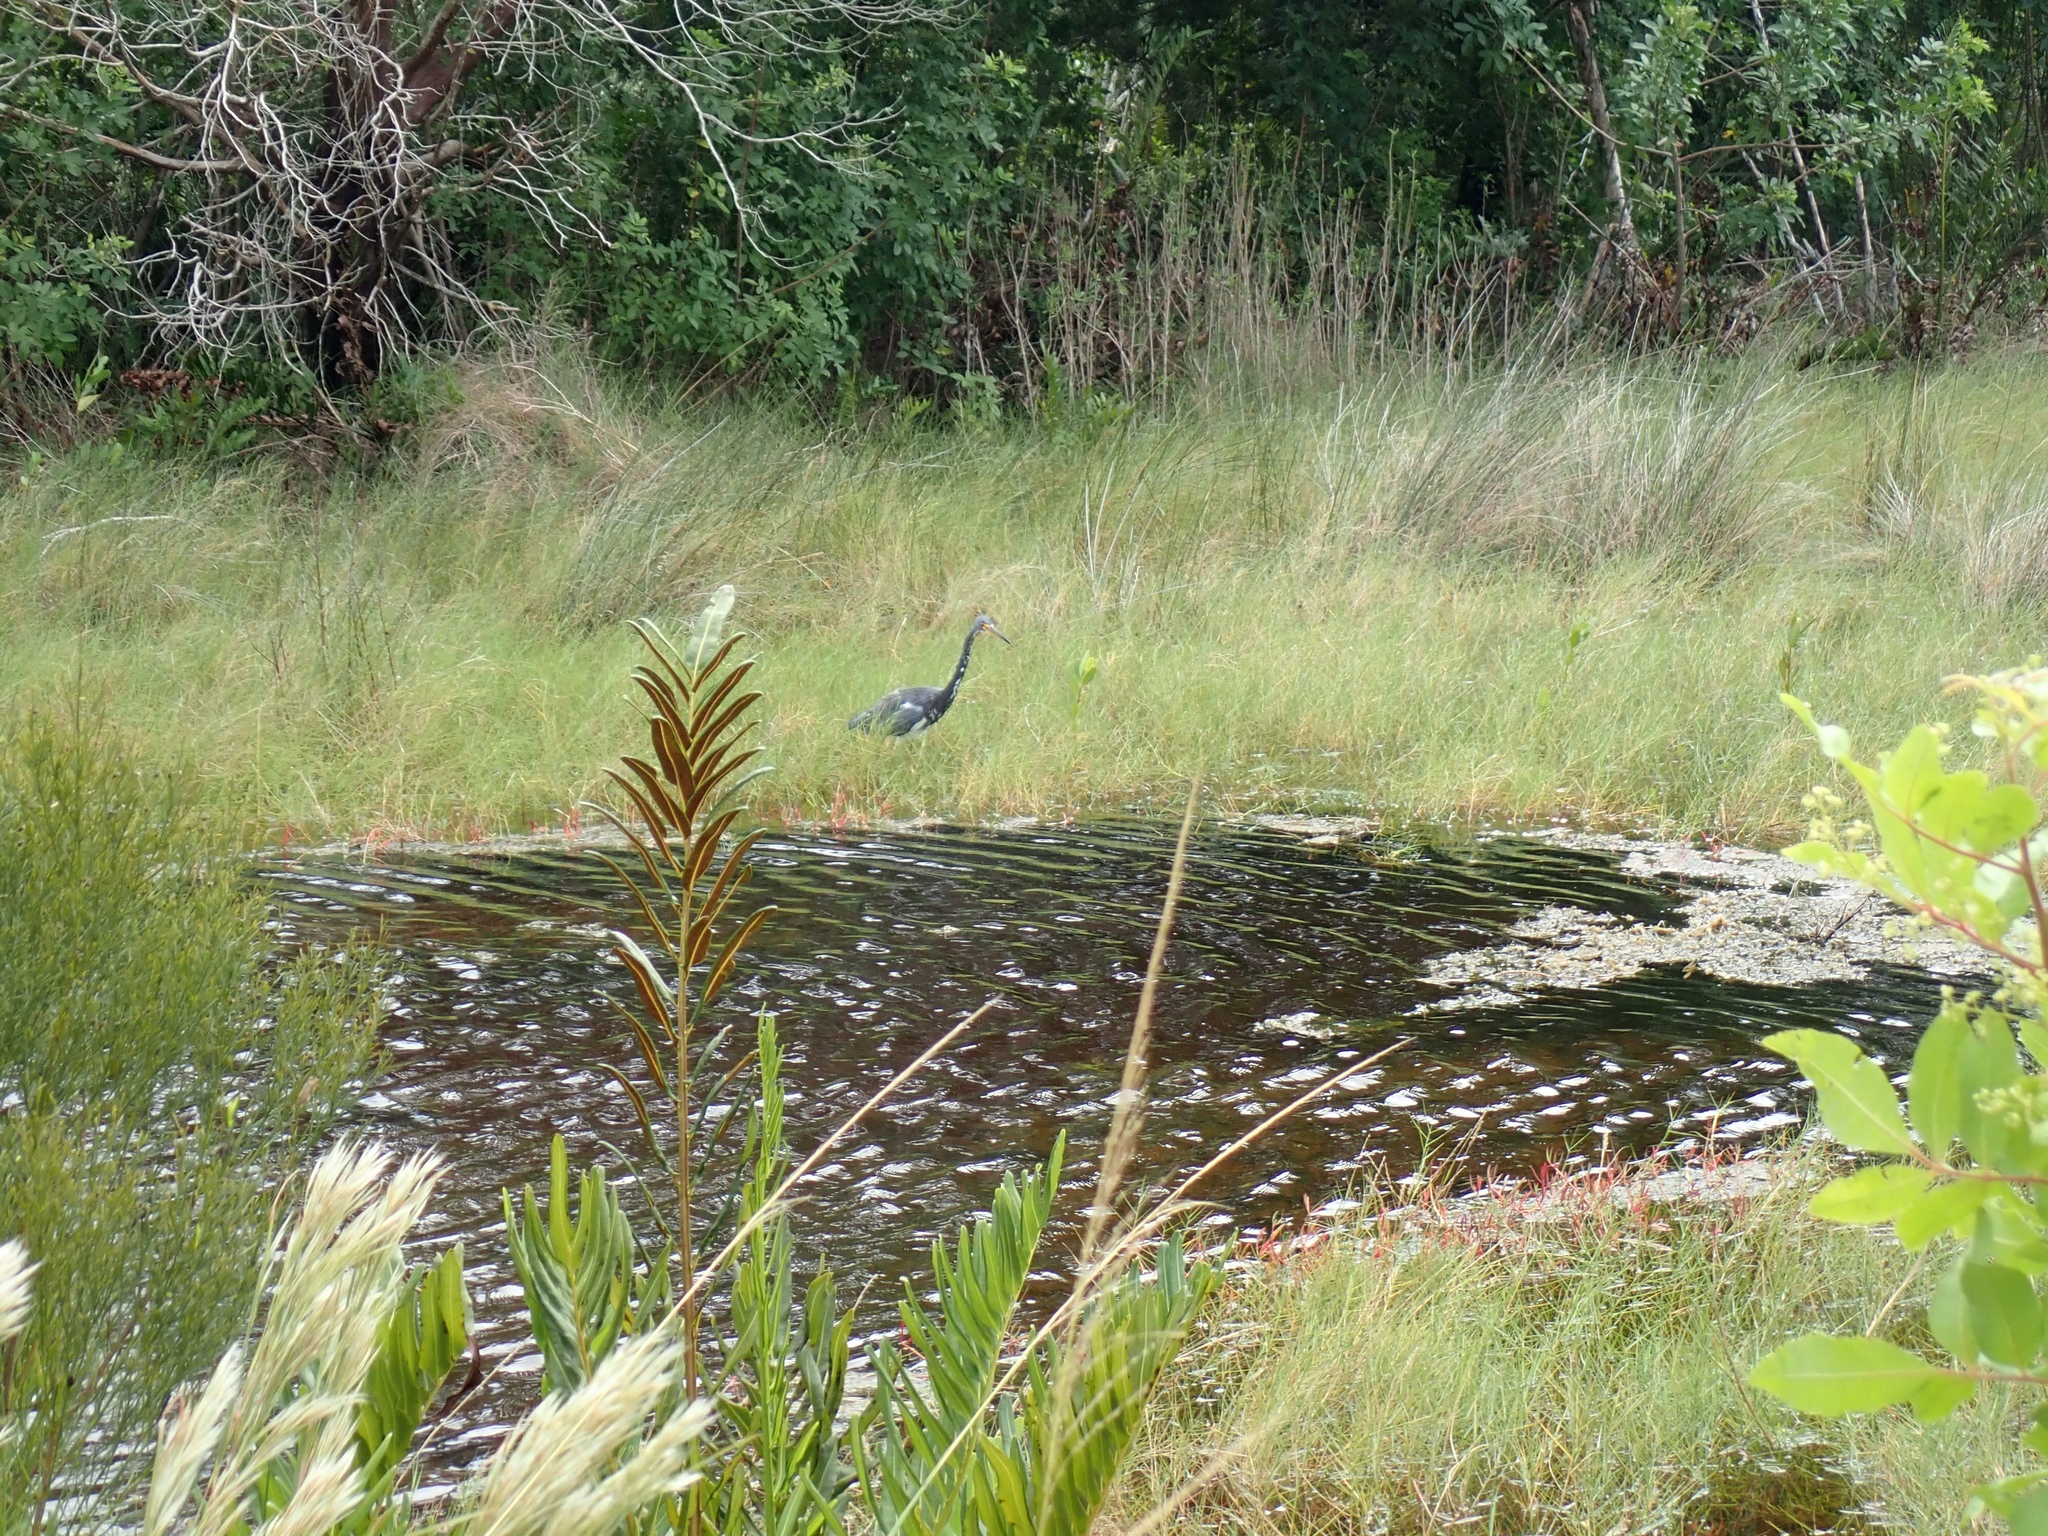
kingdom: Animalia
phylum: Chordata
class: Aves
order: Pelecaniformes
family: Ardeidae
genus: Egretta
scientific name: Egretta tricolor
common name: Tricolored heron
